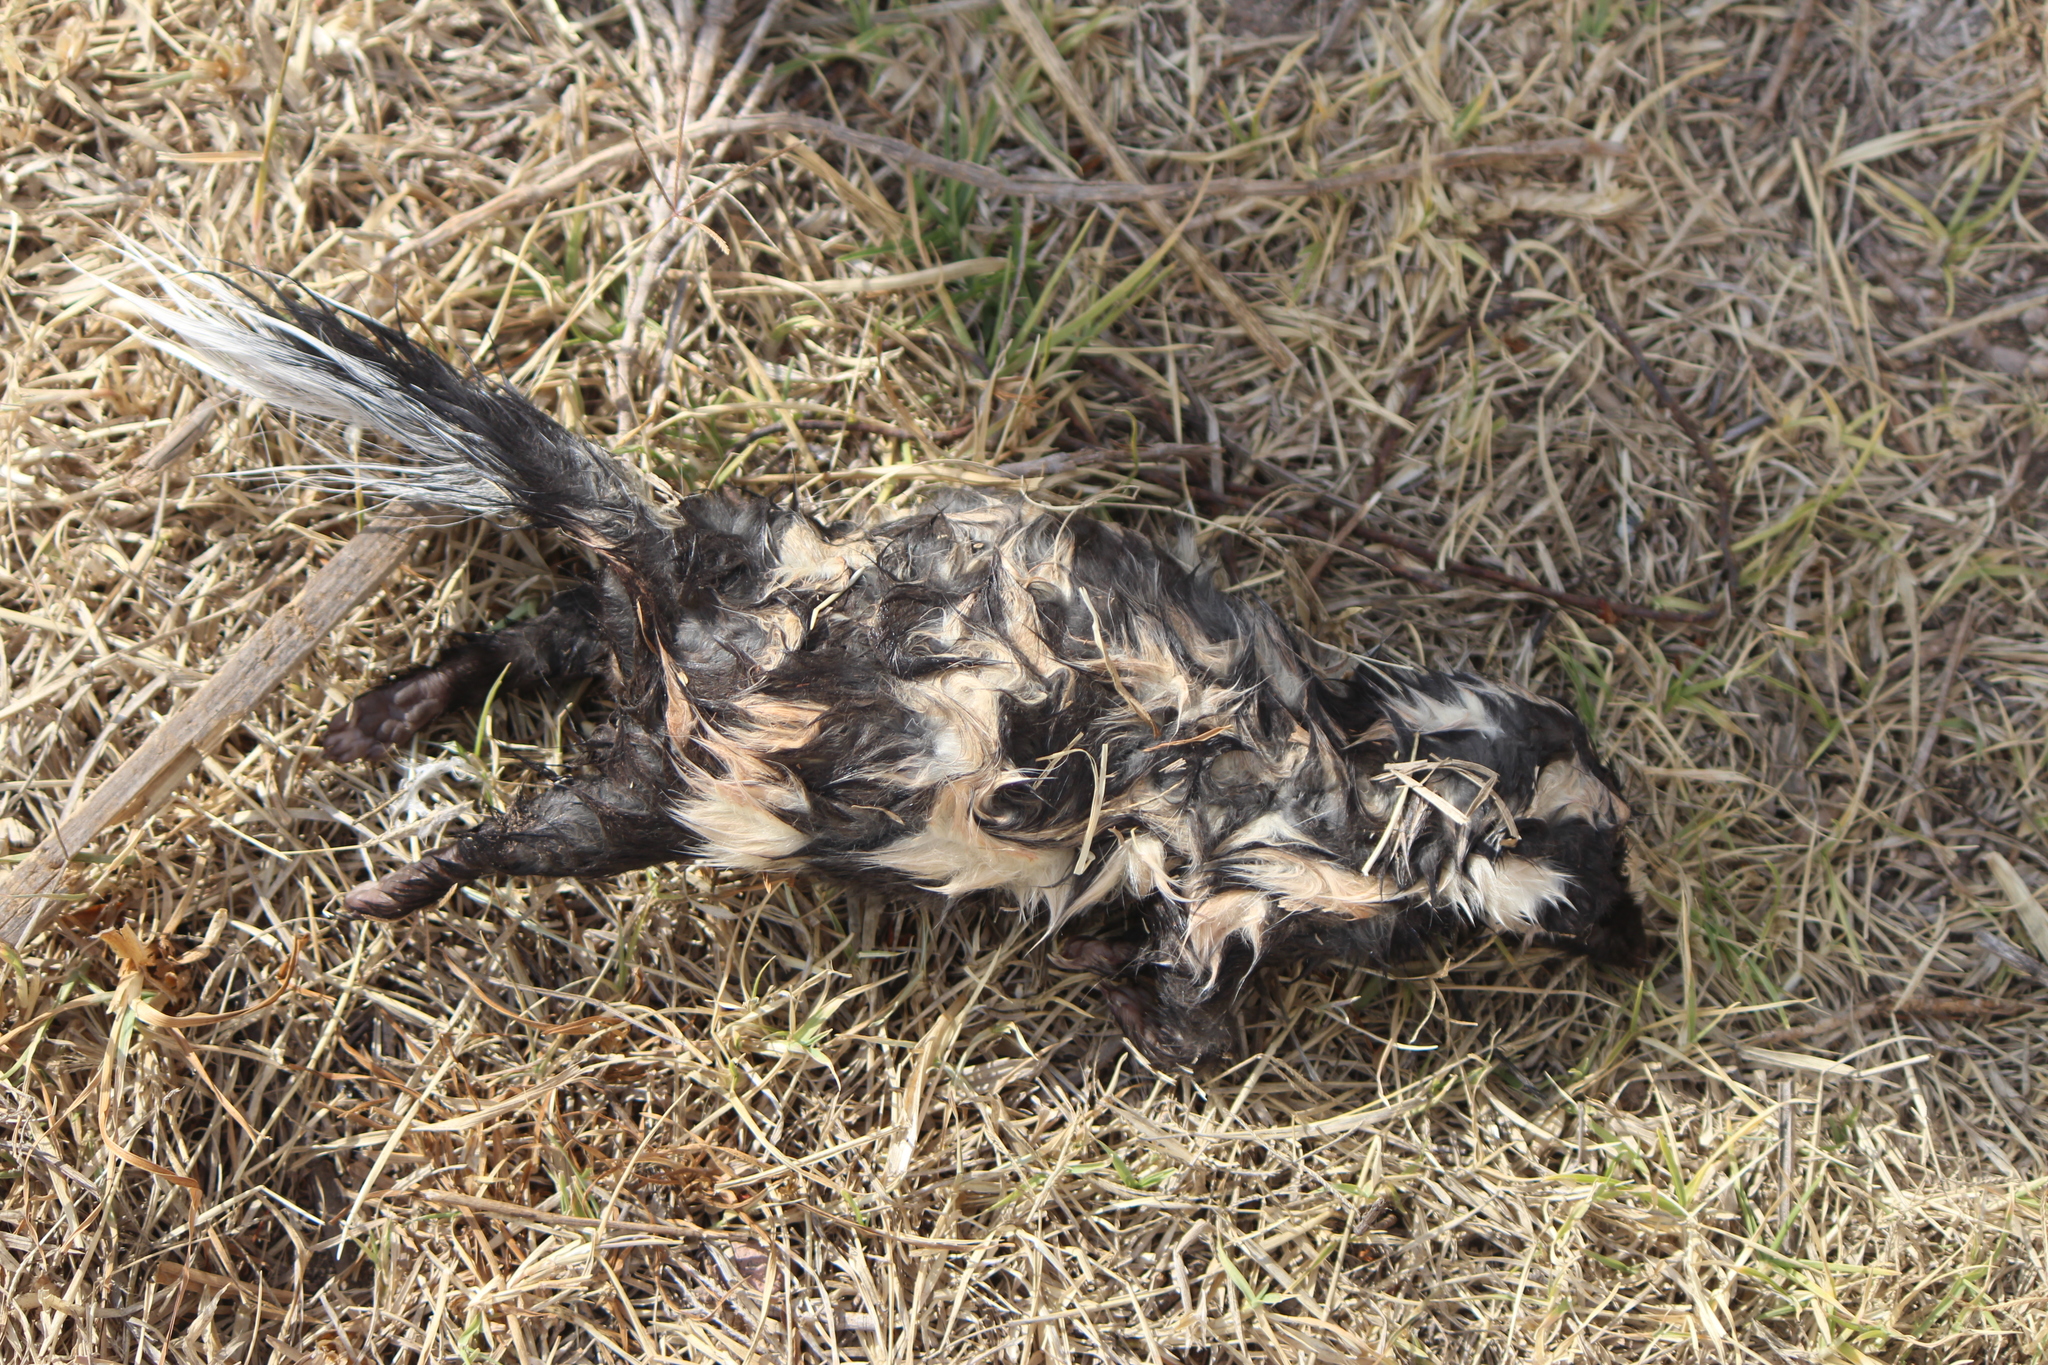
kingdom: Animalia
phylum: Chordata
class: Mammalia
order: Carnivora
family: Mephitidae
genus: Spilogale
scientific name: Spilogale angustifrons
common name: Southern spotted skunk
